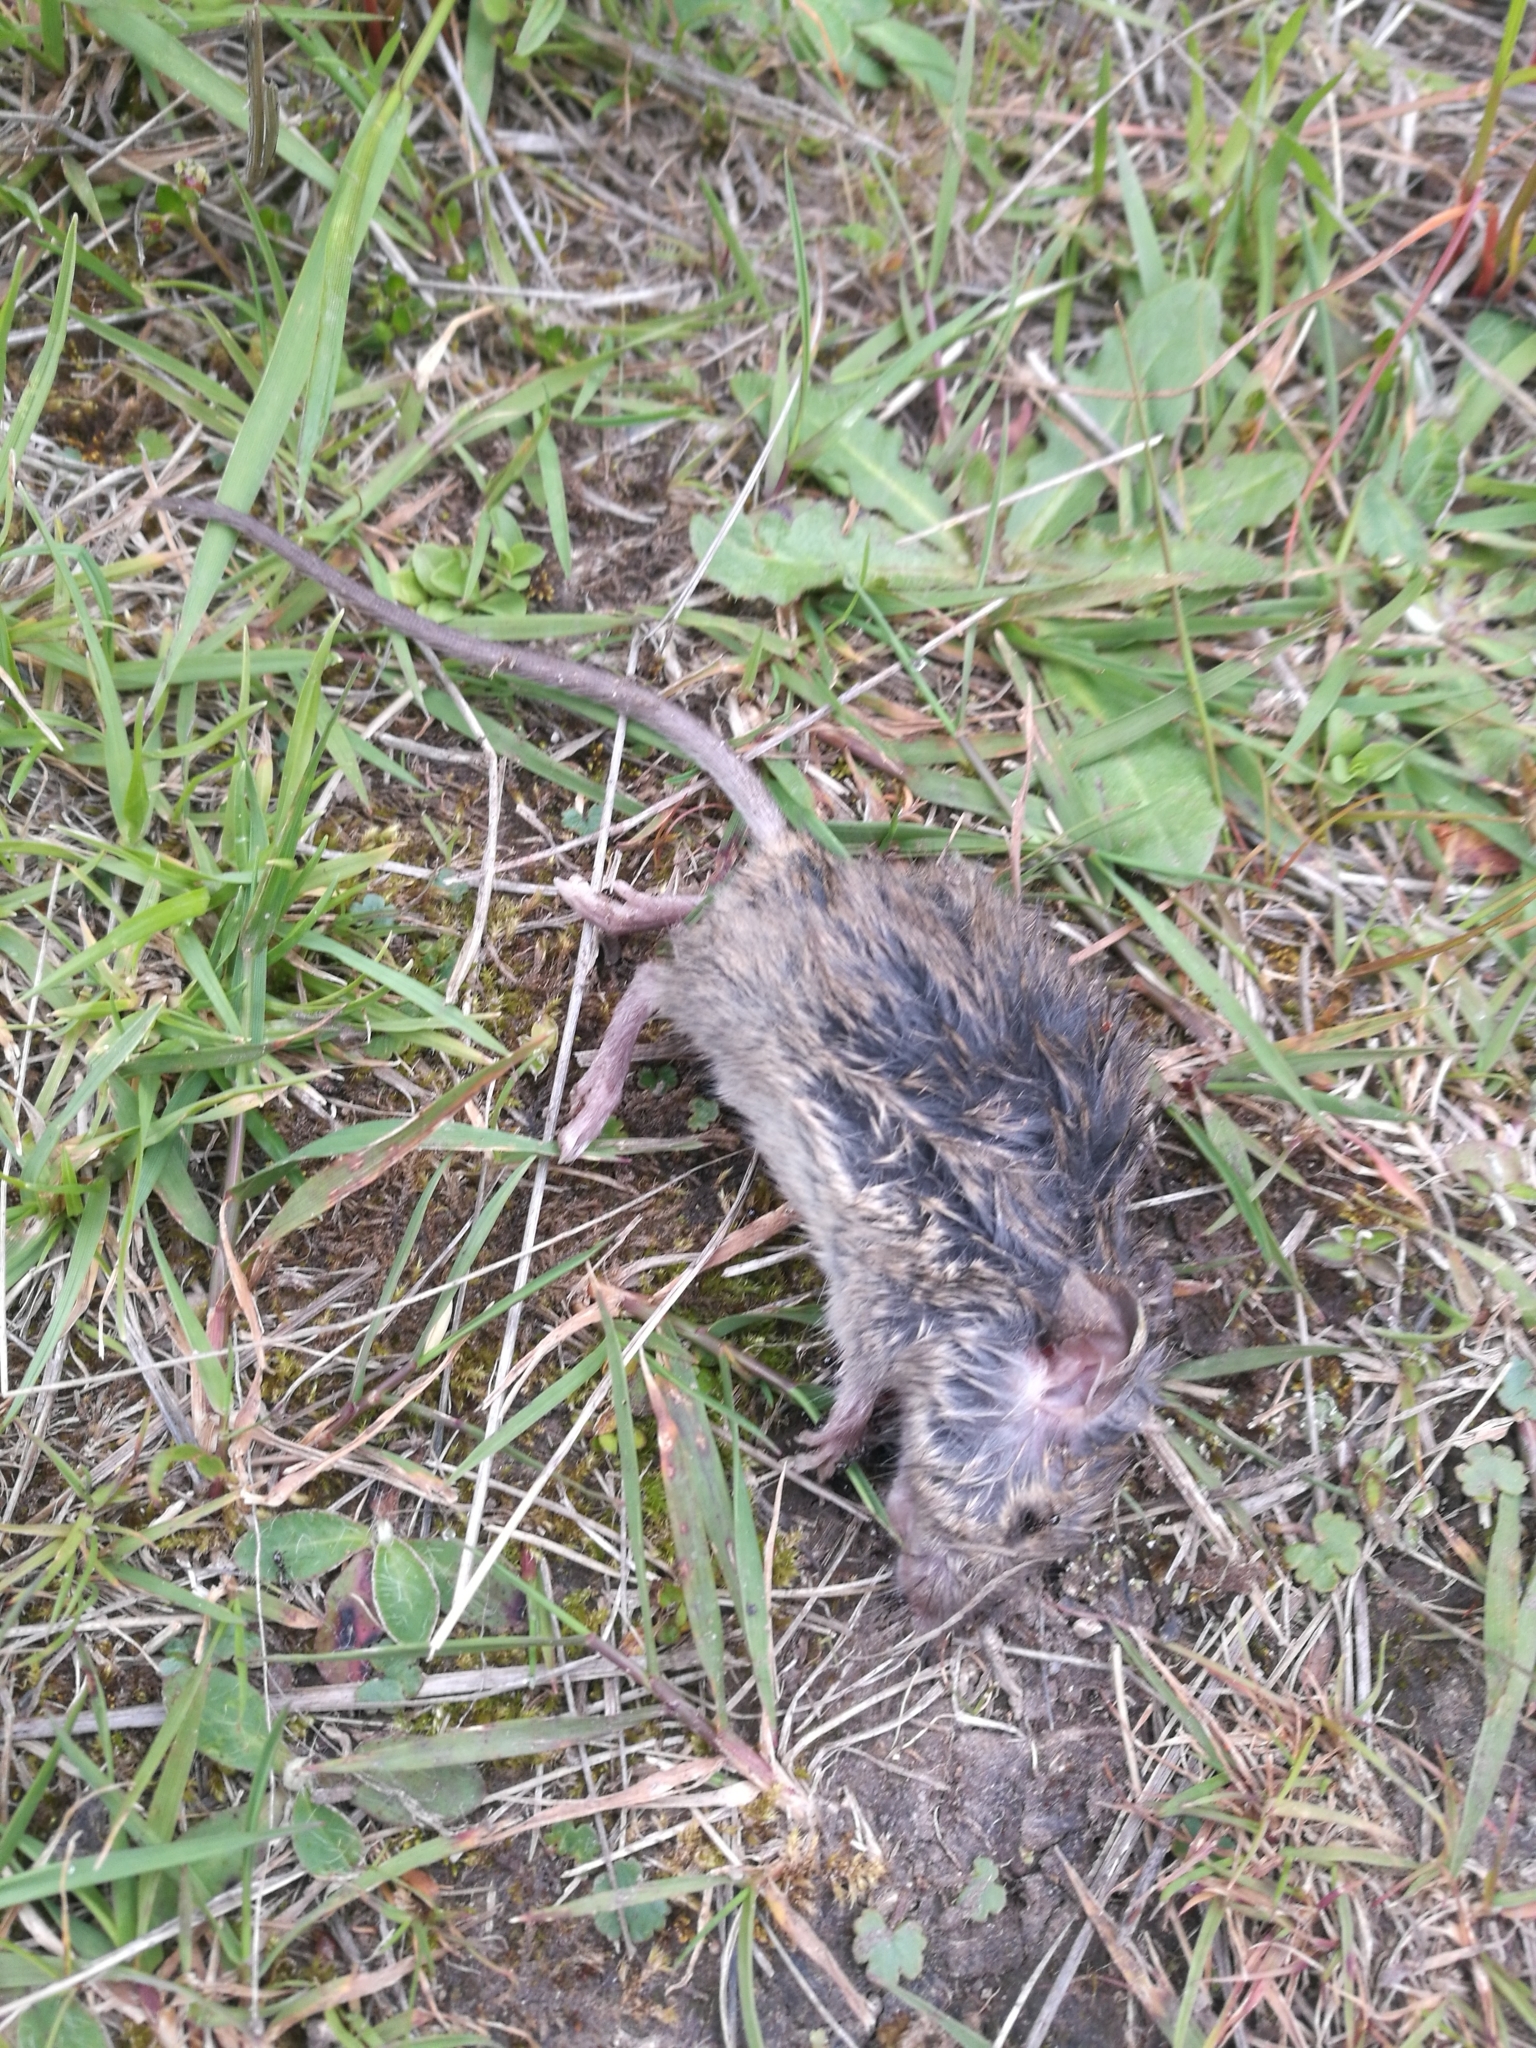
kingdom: Animalia
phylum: Chordata
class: Mammalia
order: Rodentia
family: Muridae
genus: Rattus
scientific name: Rattus rattus
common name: Black rat
